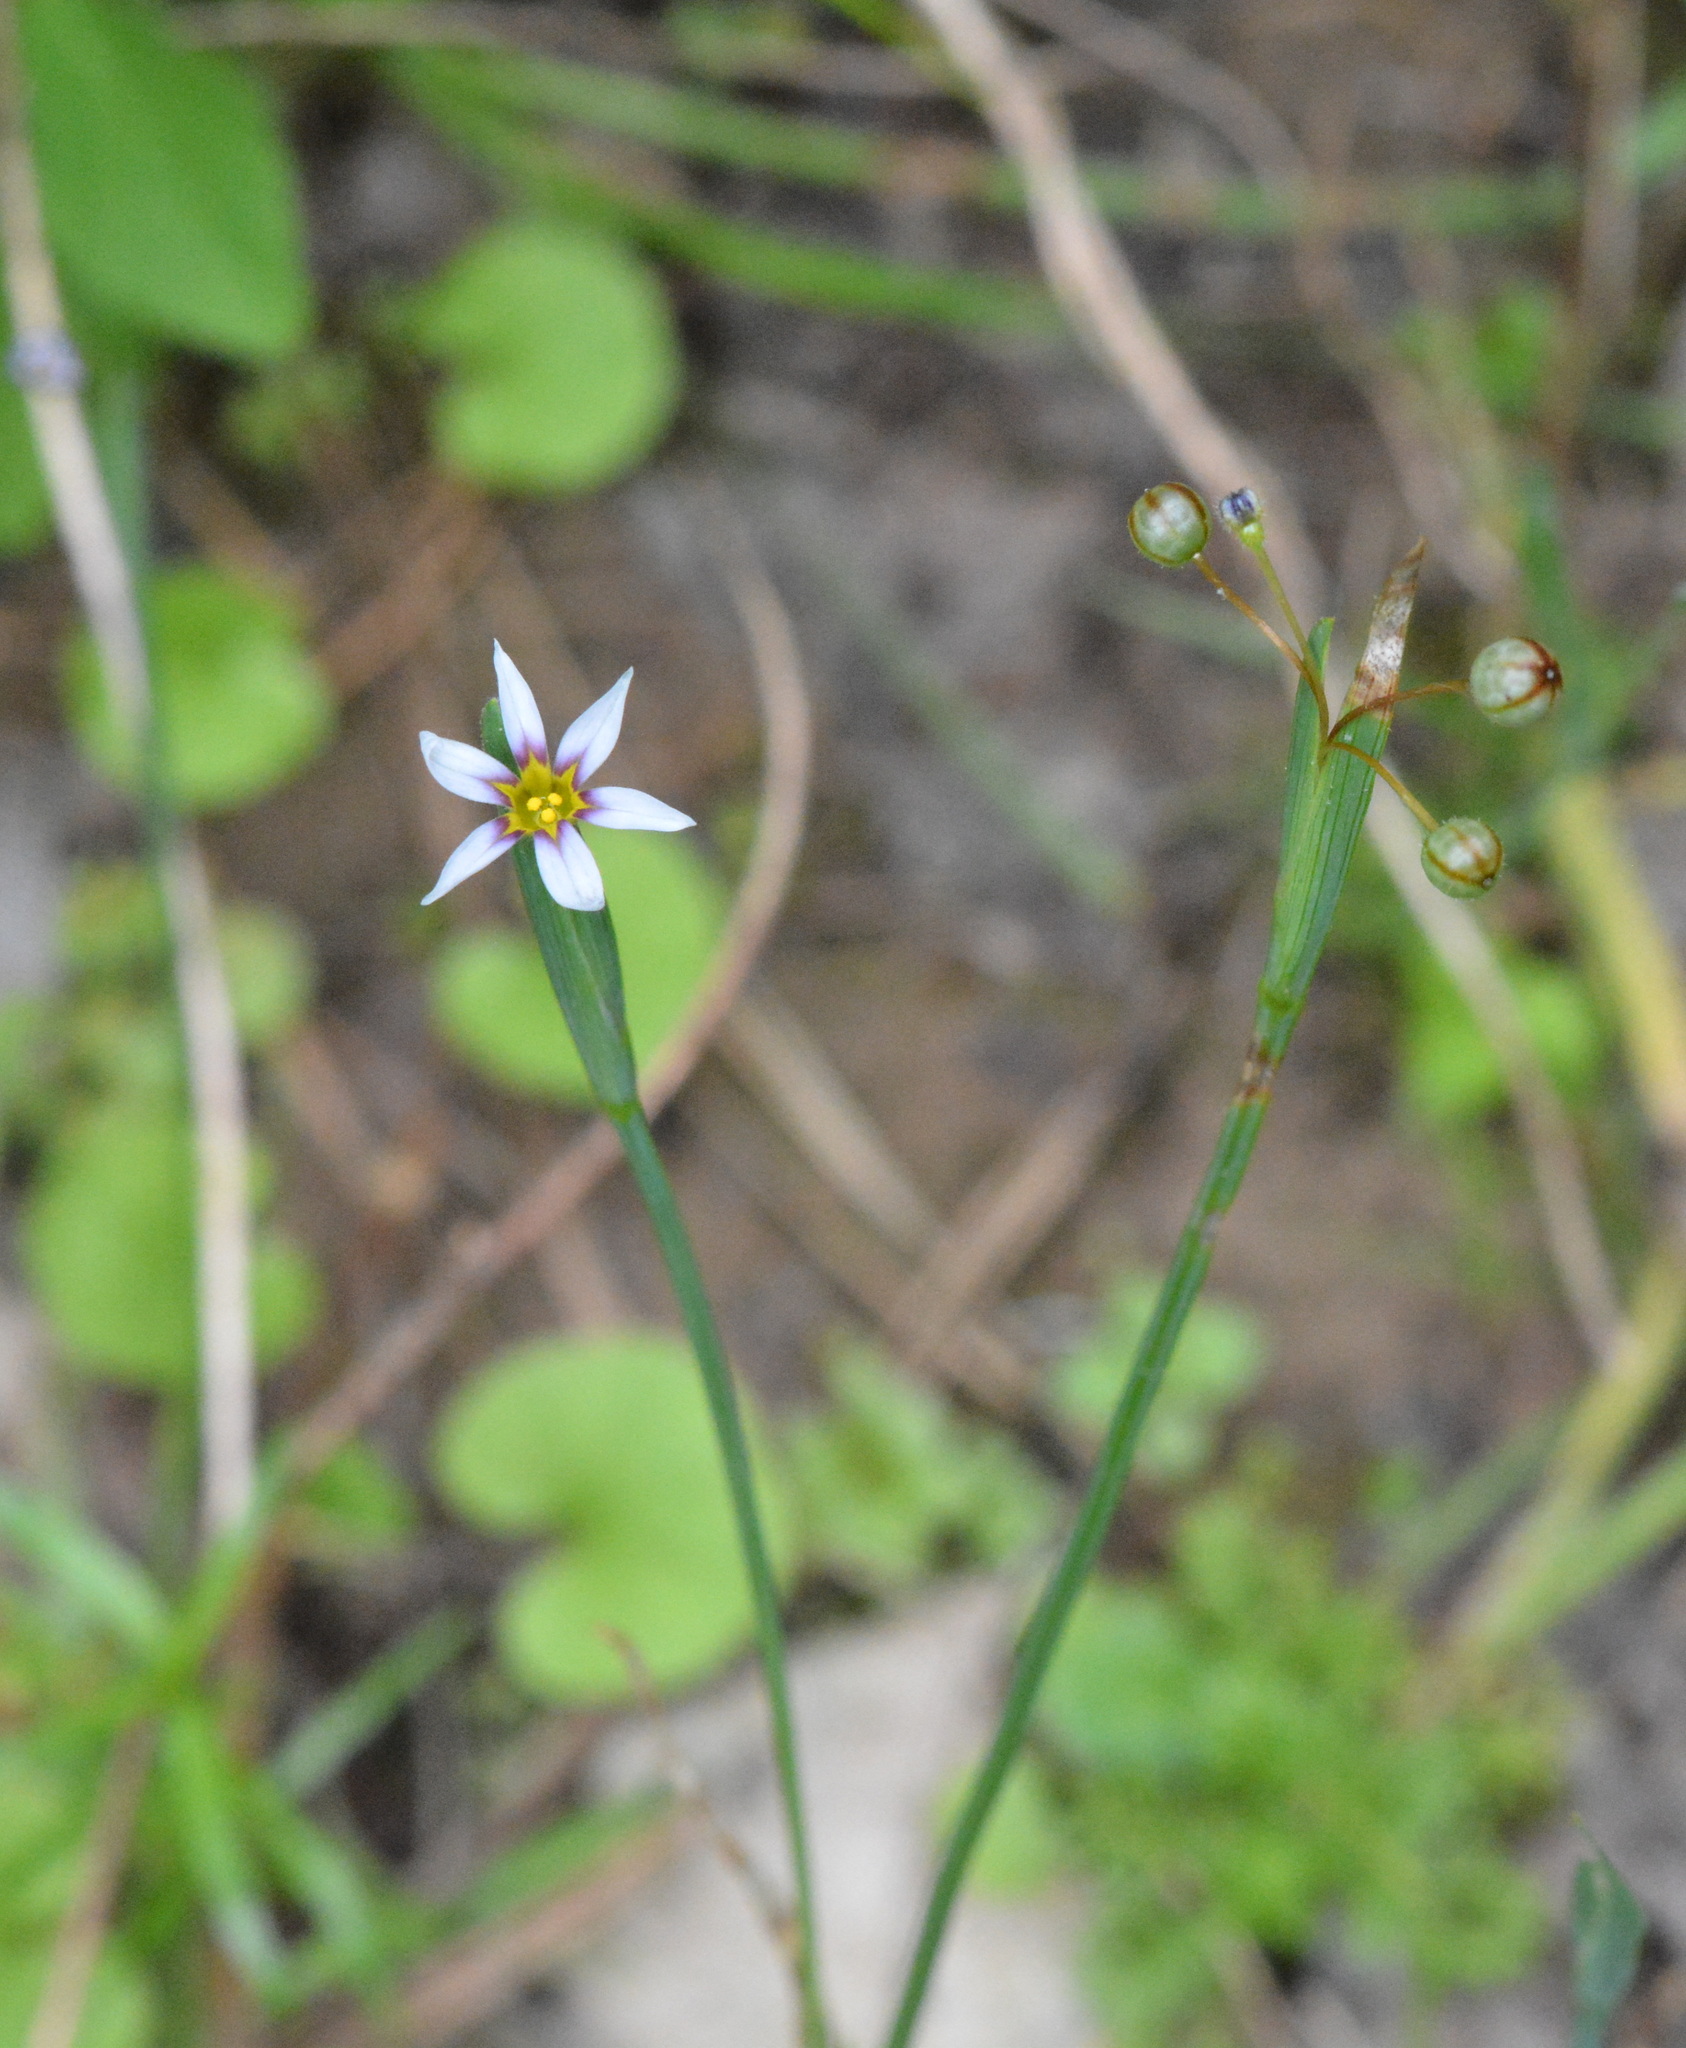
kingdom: Plantae
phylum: Tracheophyta
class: Liliopsida
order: Asparagales
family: Iridaceae
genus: Sisyrinchium
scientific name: Sisyrinchium micranthum
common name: Bermuda pigroot
